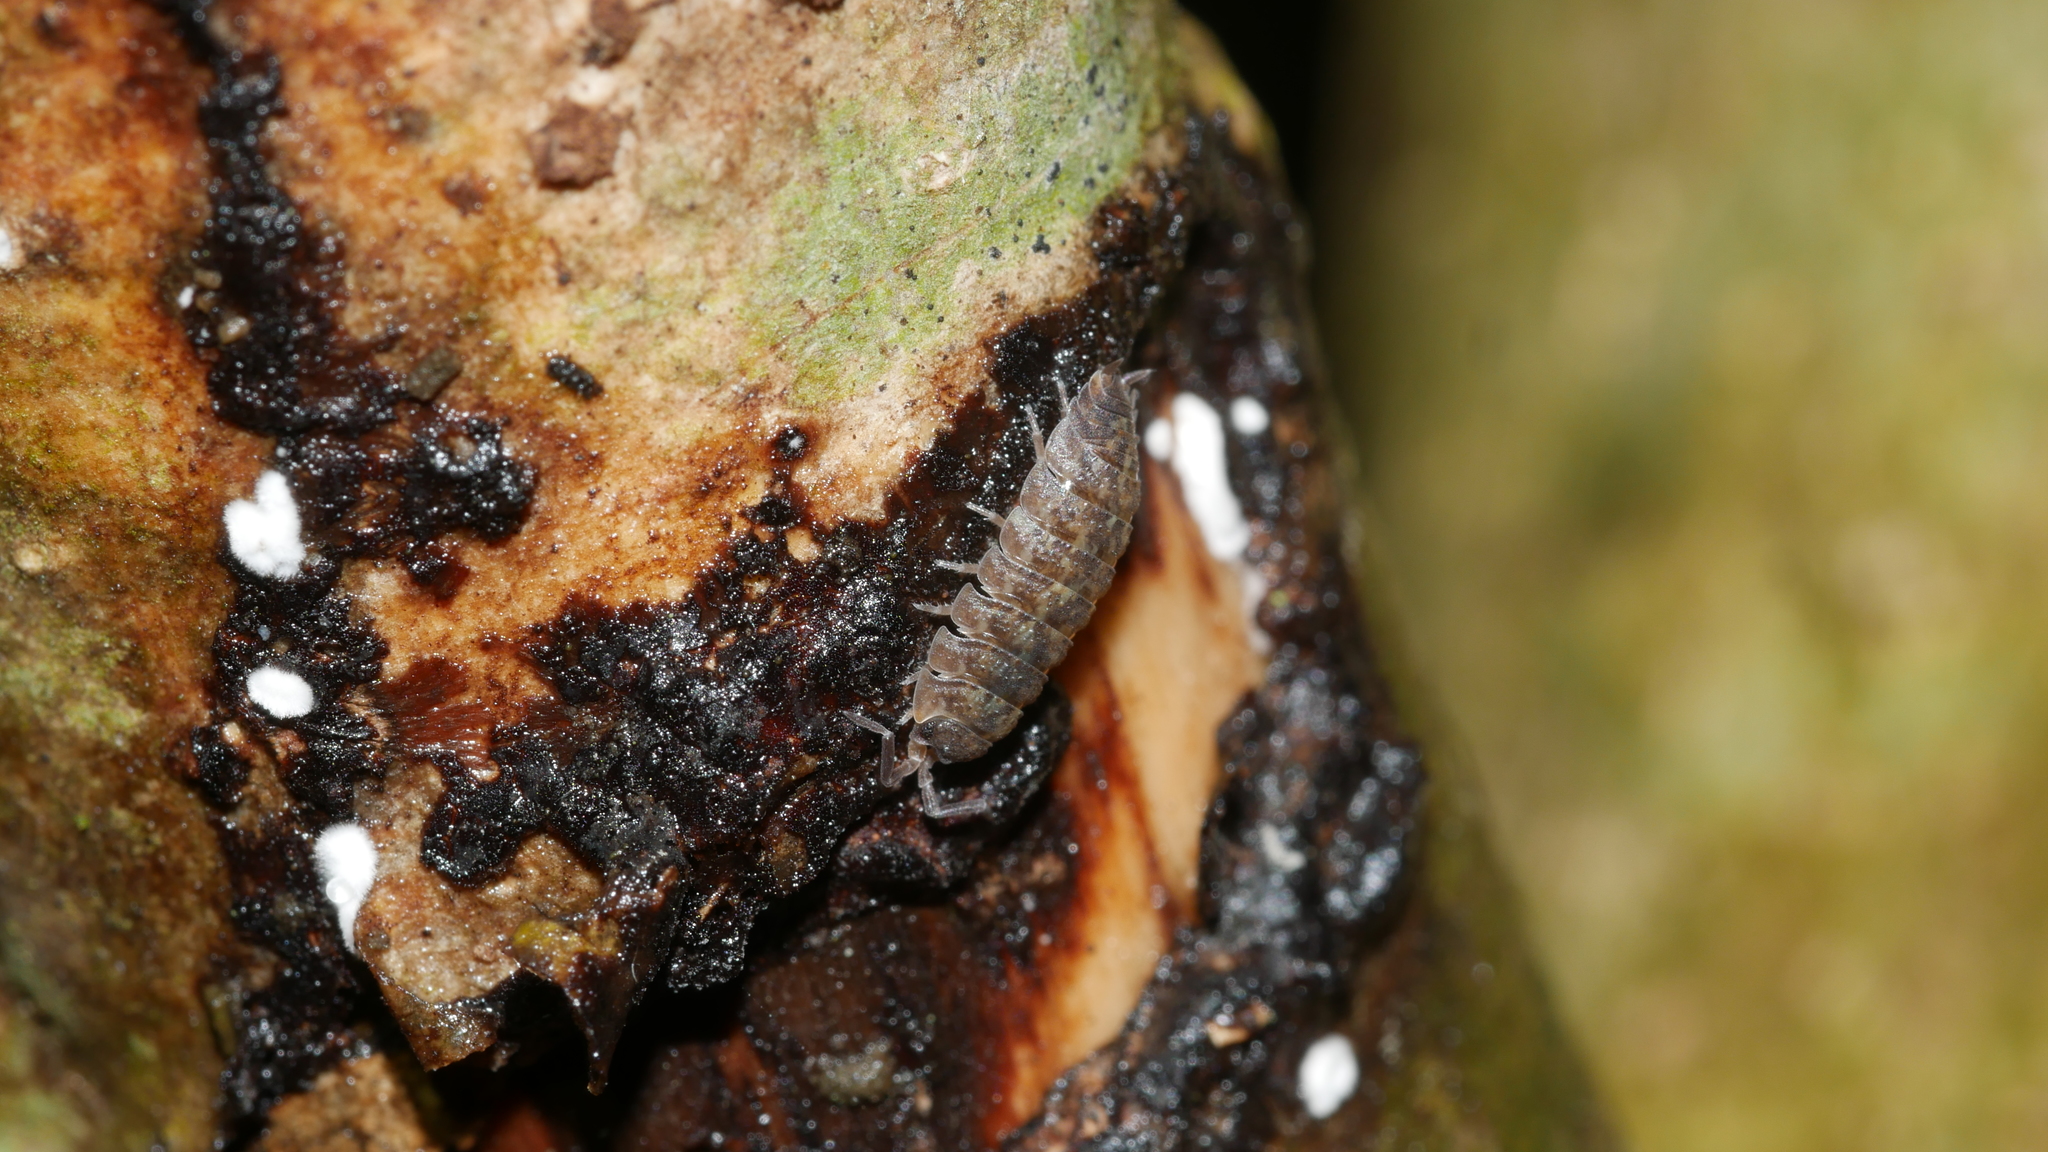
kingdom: Animalia
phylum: Arthropoda
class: Malacostraca
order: Isopoda
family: Porcellionidae
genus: Porcellio
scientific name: Porcellio scaber
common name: Common rough woodlouse
